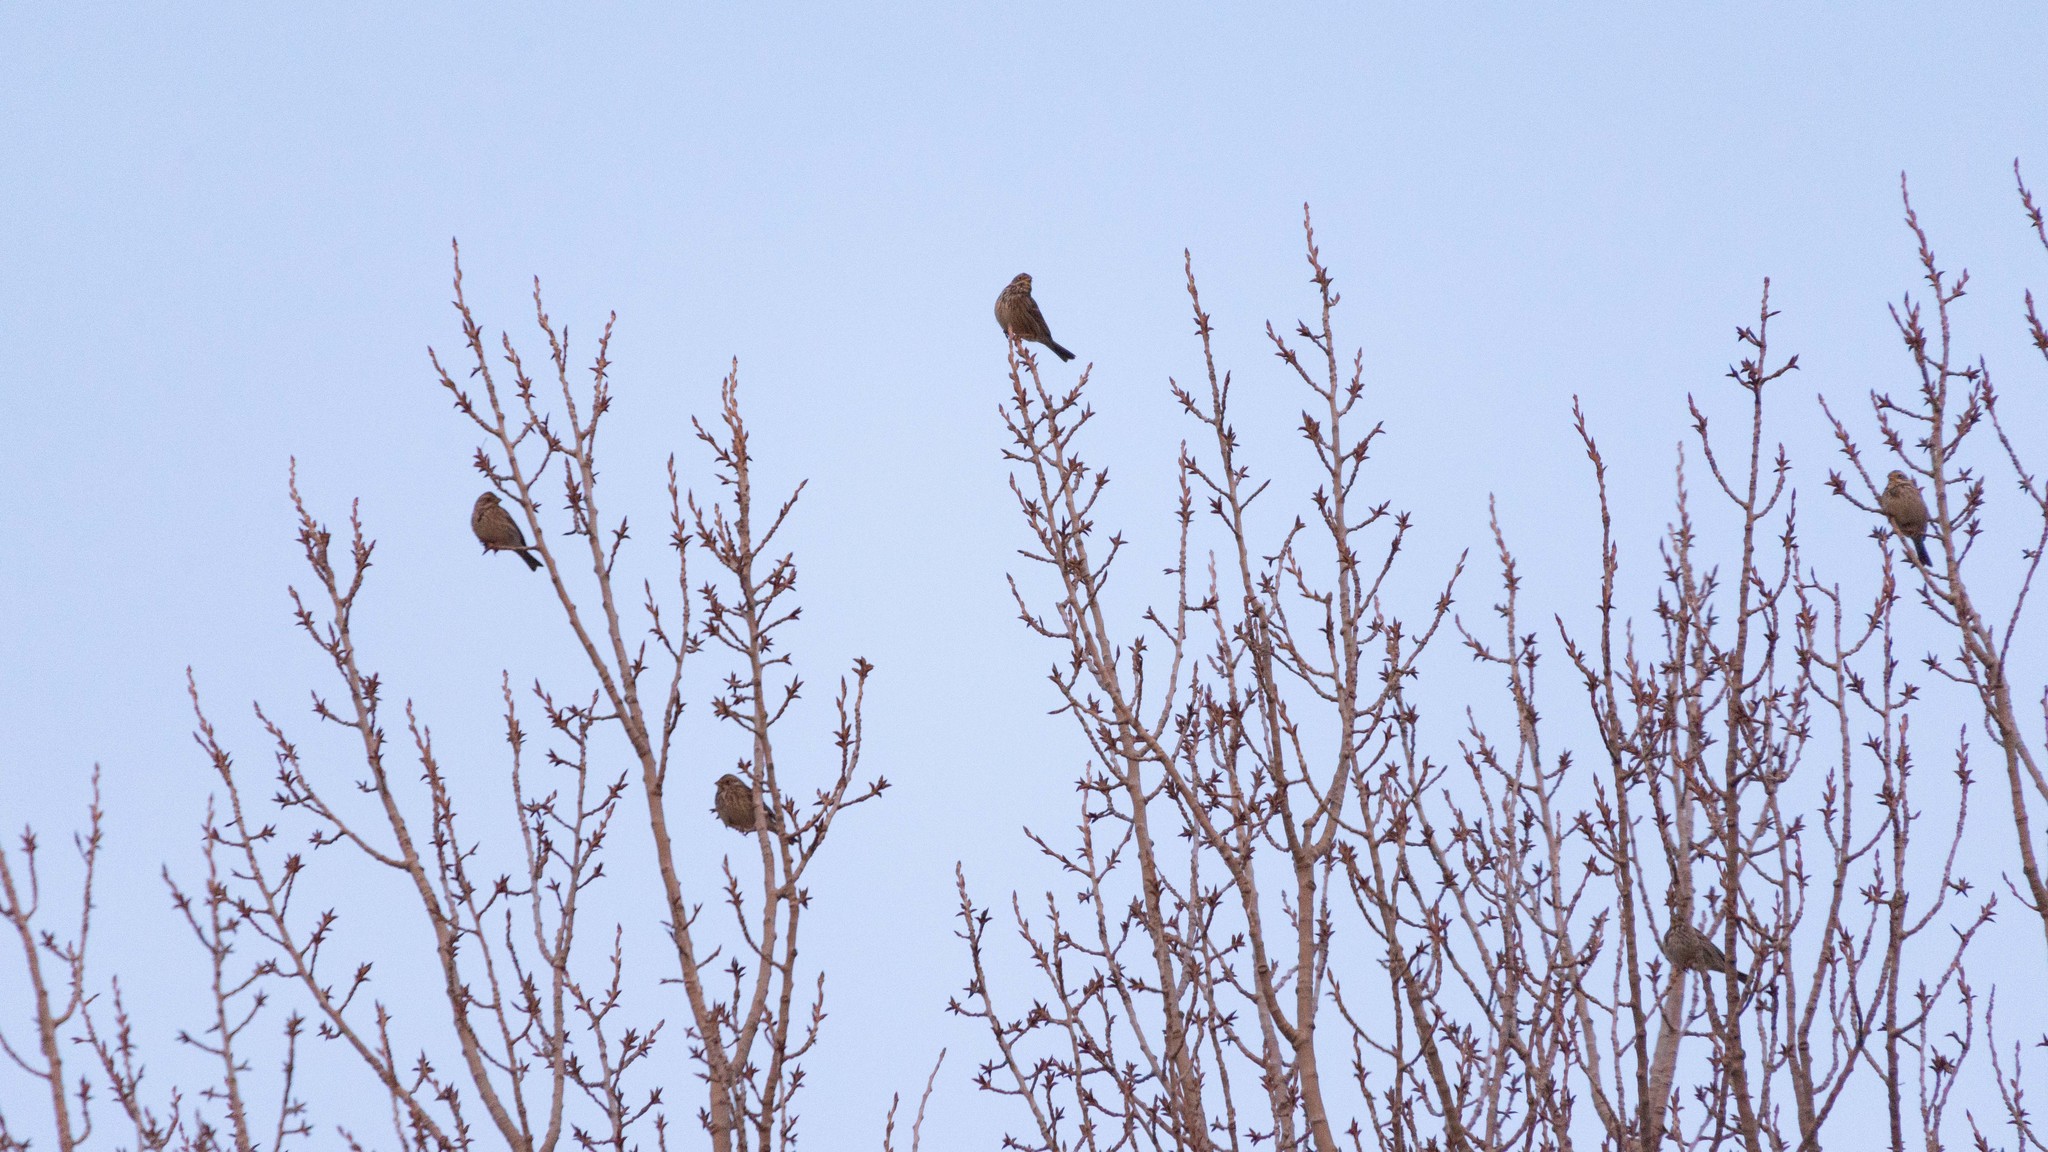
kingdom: Animalia
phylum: Chordata
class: Aves
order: Passeriformes
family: Emberizidae
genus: Emberiza
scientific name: Emberiza calandra
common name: Corn bunting
